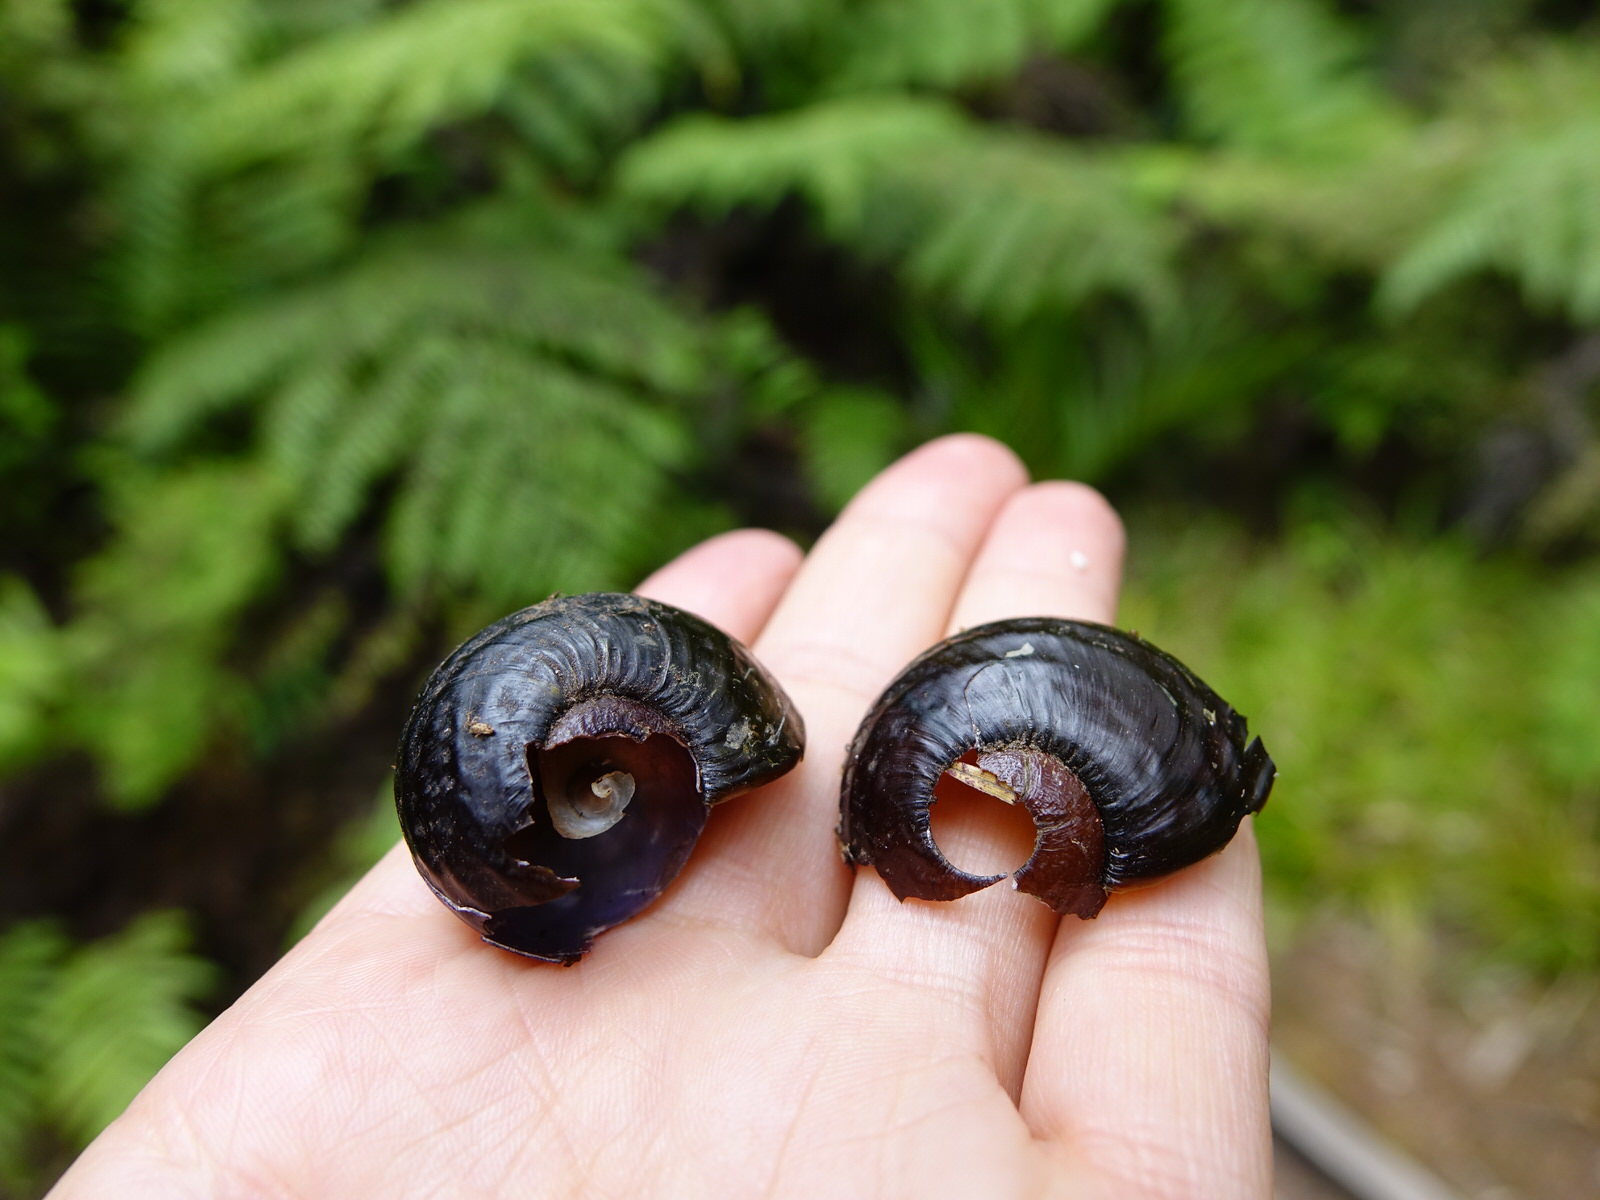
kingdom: Animalia
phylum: Mollusca
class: Gastropoda
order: Stylommatophora
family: Rhytididae
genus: Paryphanta
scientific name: Paryphanta busbyi
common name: Kauri snail
